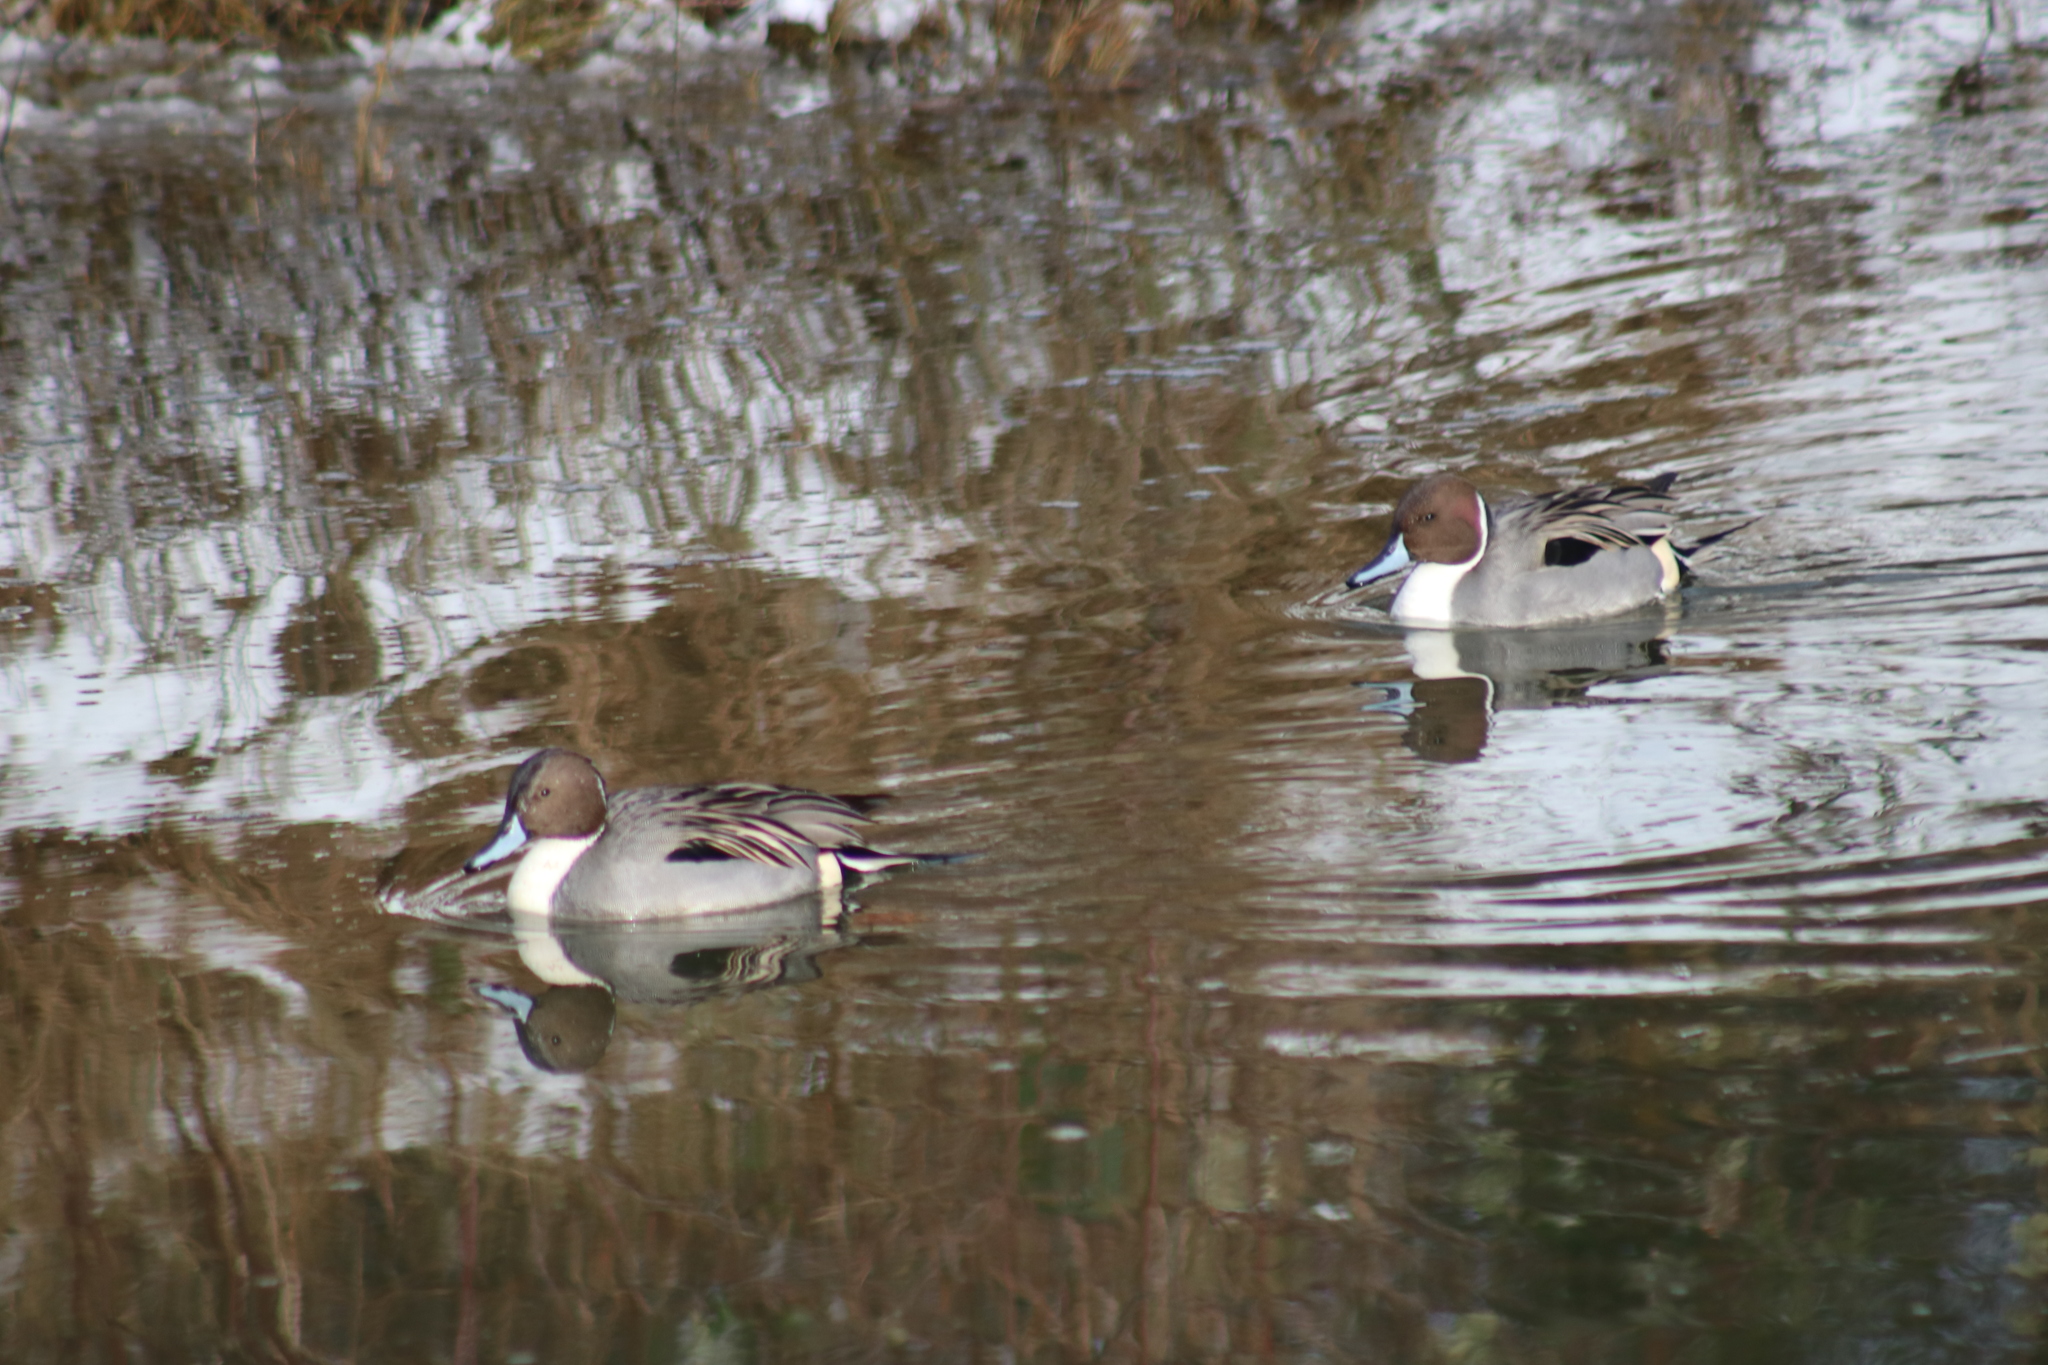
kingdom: Animalia
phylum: Chordata
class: Aves
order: Anseriformes
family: Anatidae
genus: Anas
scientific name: Anas acuta
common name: Northern pintail
